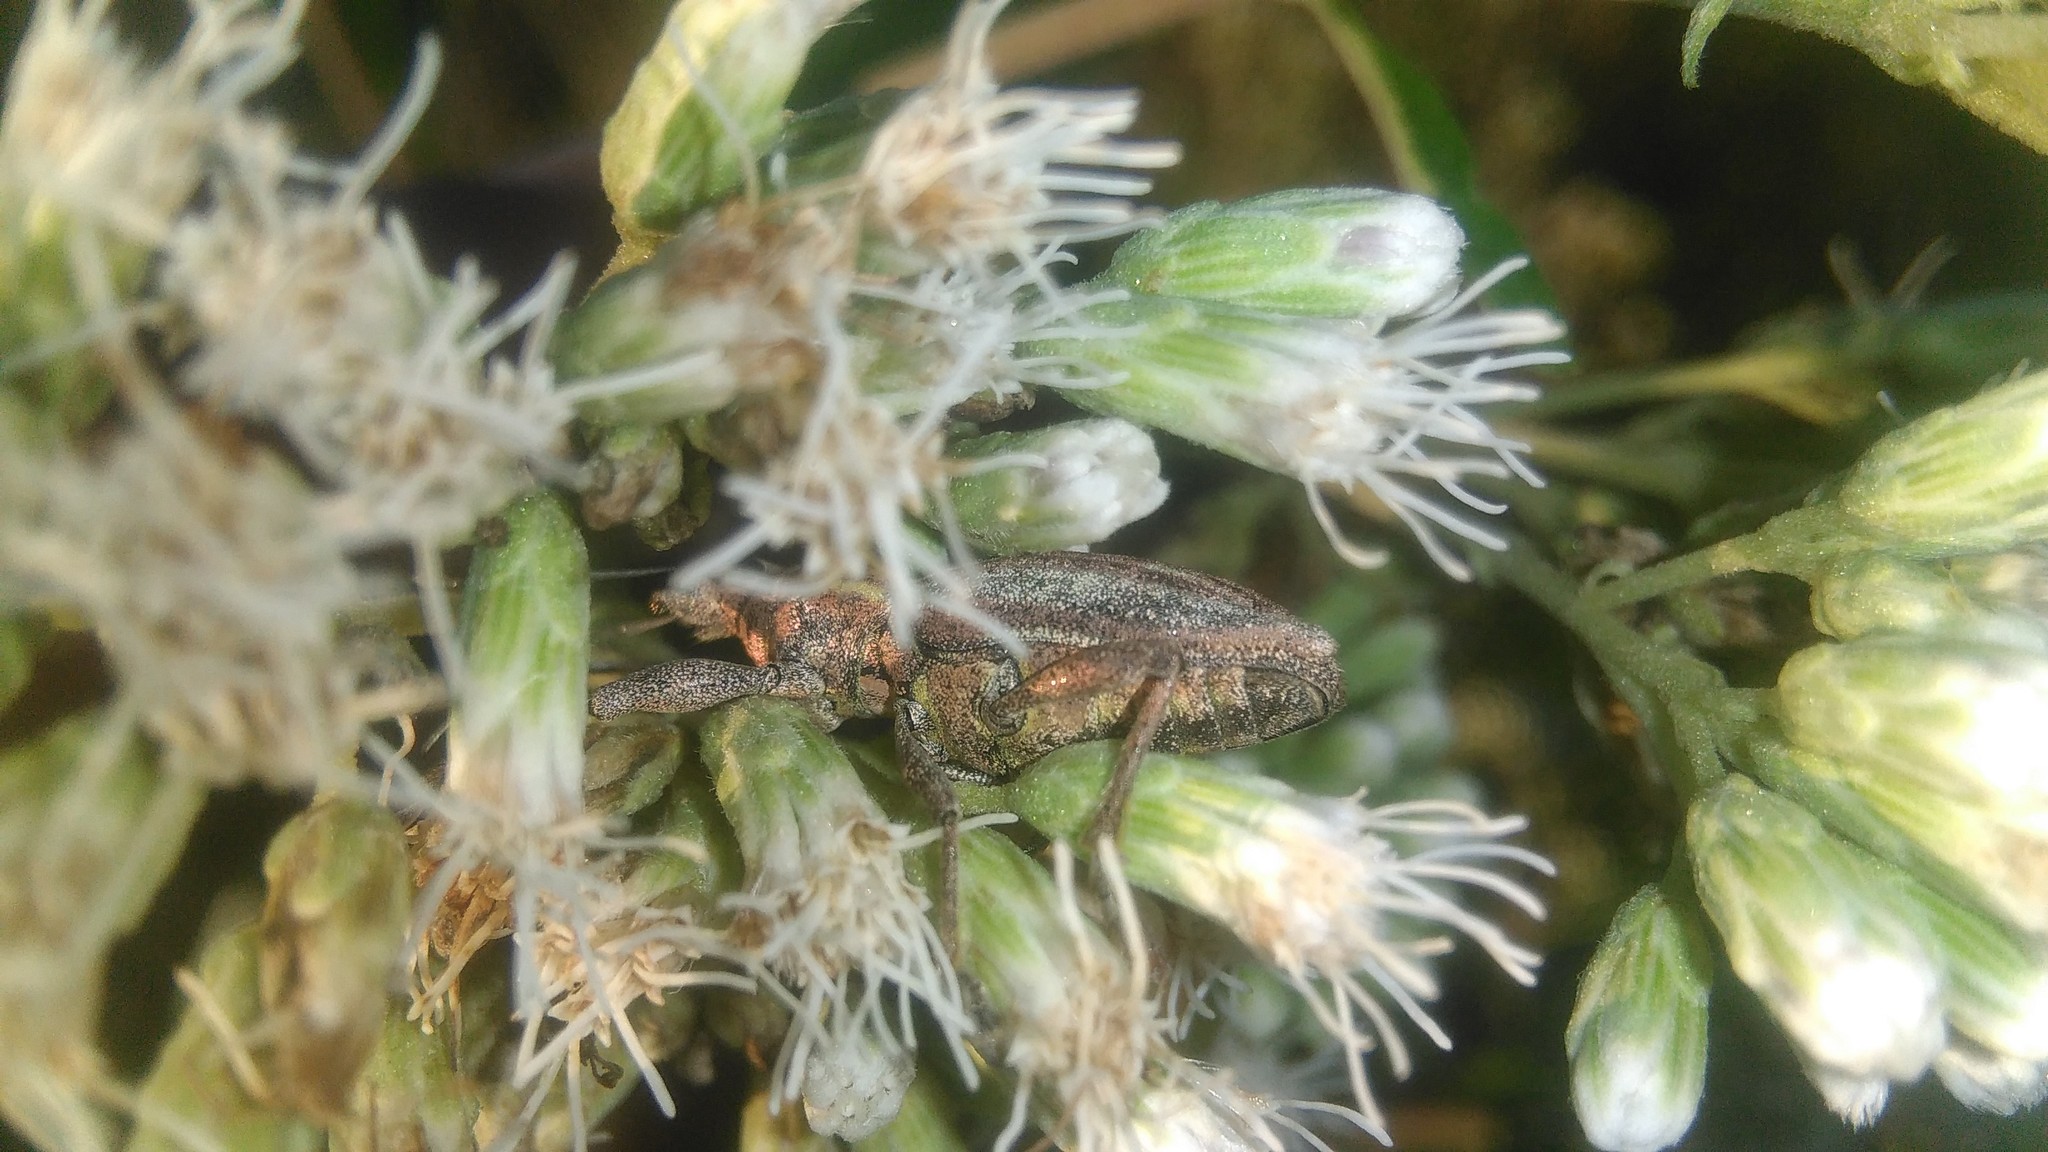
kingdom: Animalia
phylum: Arthropoda
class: Insecta
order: Coleoptera
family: Curculionidae
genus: Naupactus
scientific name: Naupactus xanthographus
